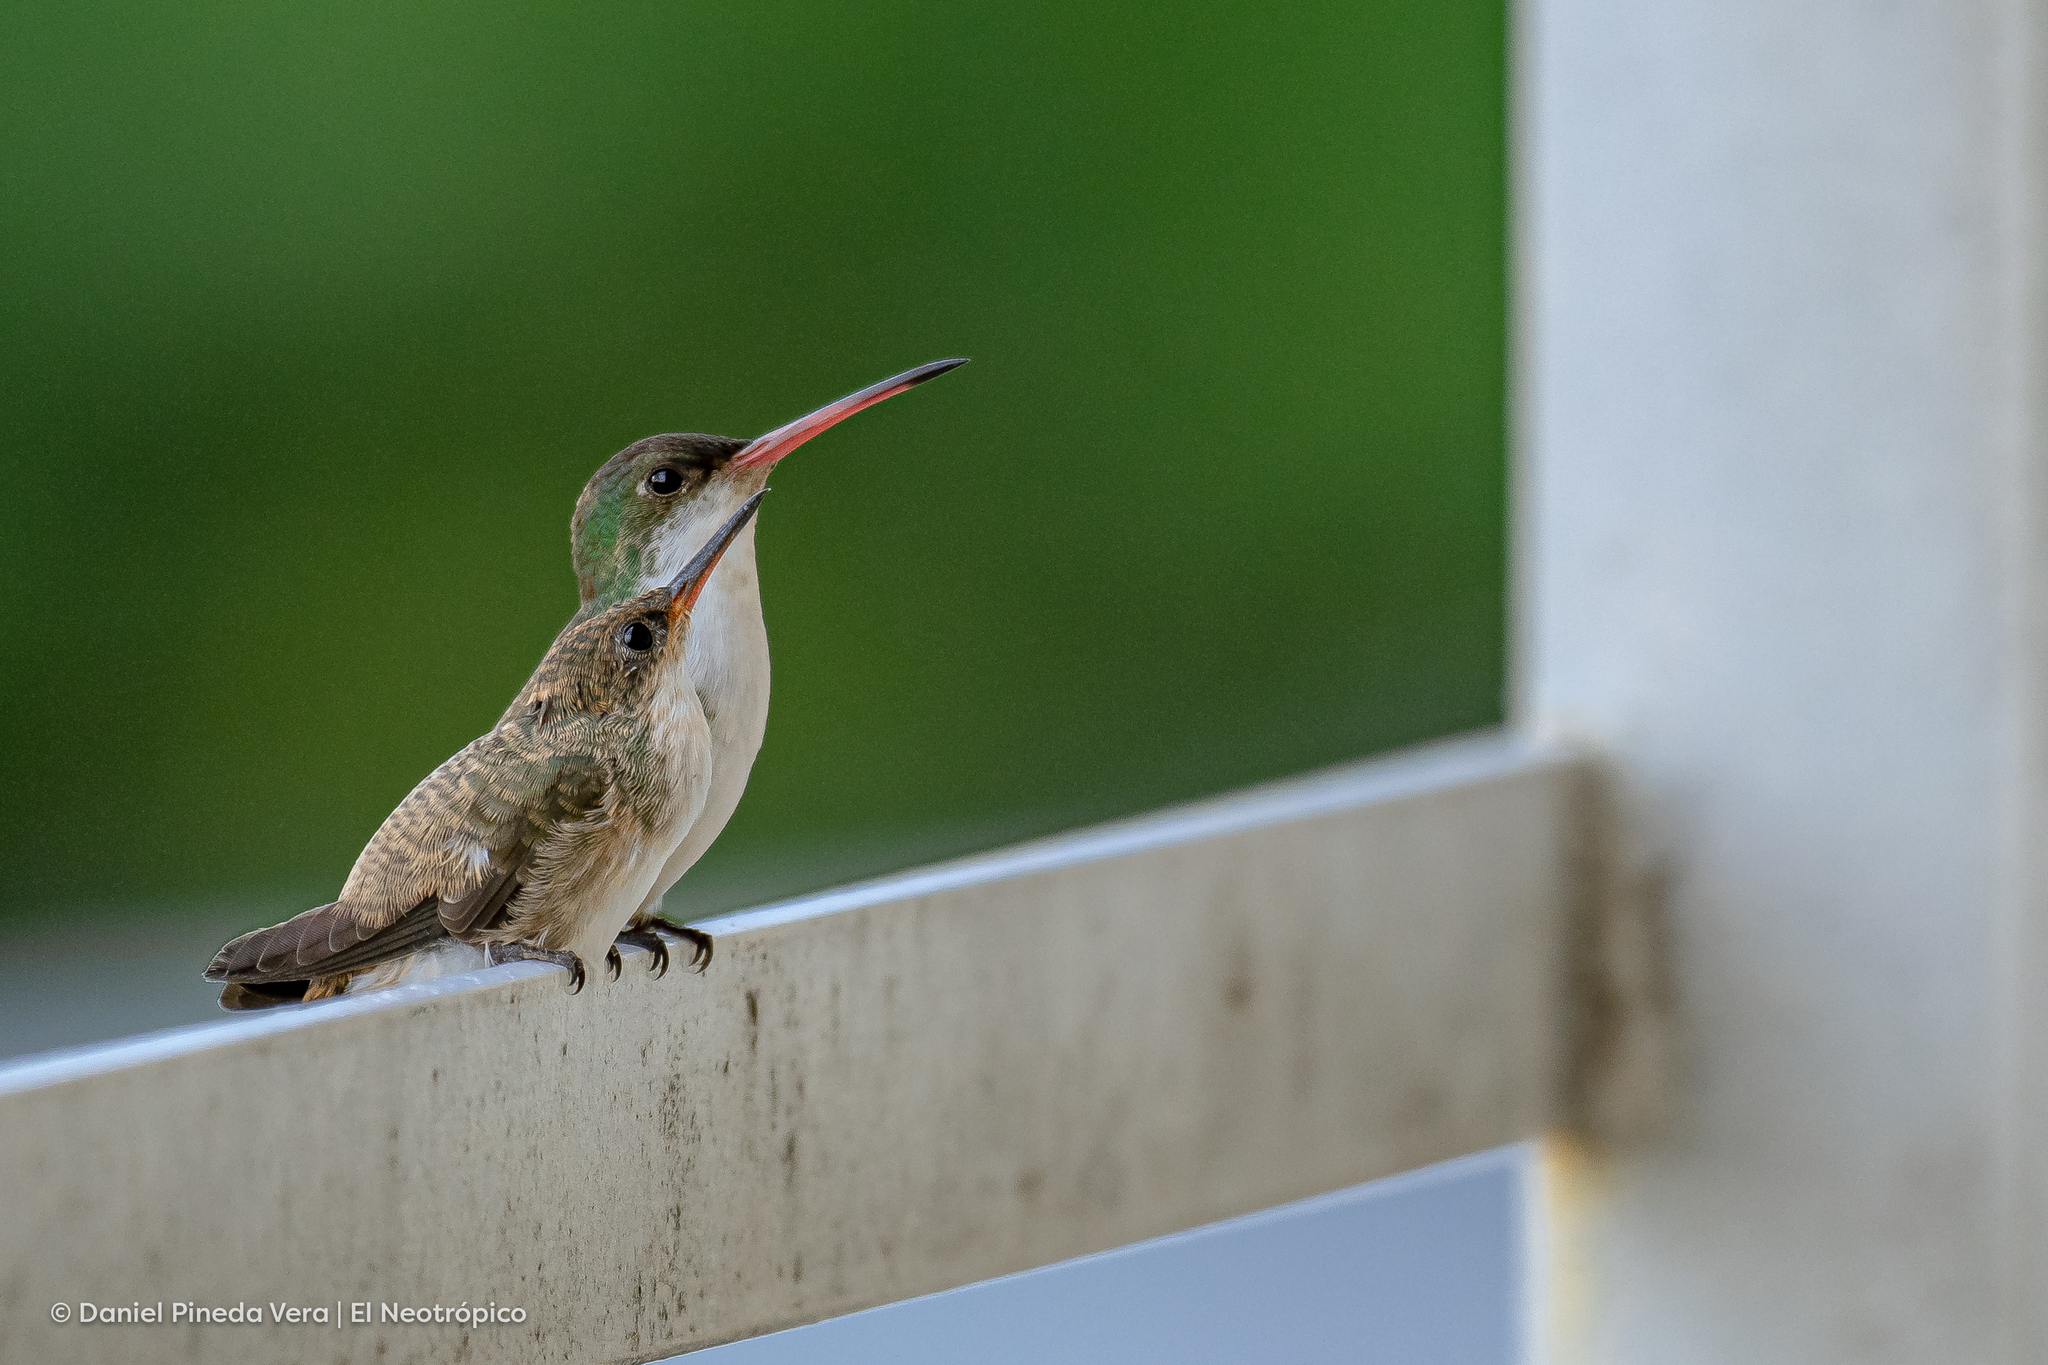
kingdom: Animalia
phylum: Chordata
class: Aves
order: Apodiformes
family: Trochilidae
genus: Leucolia
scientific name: Leucolia viridifrons
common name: Green-fronted hummingbird
